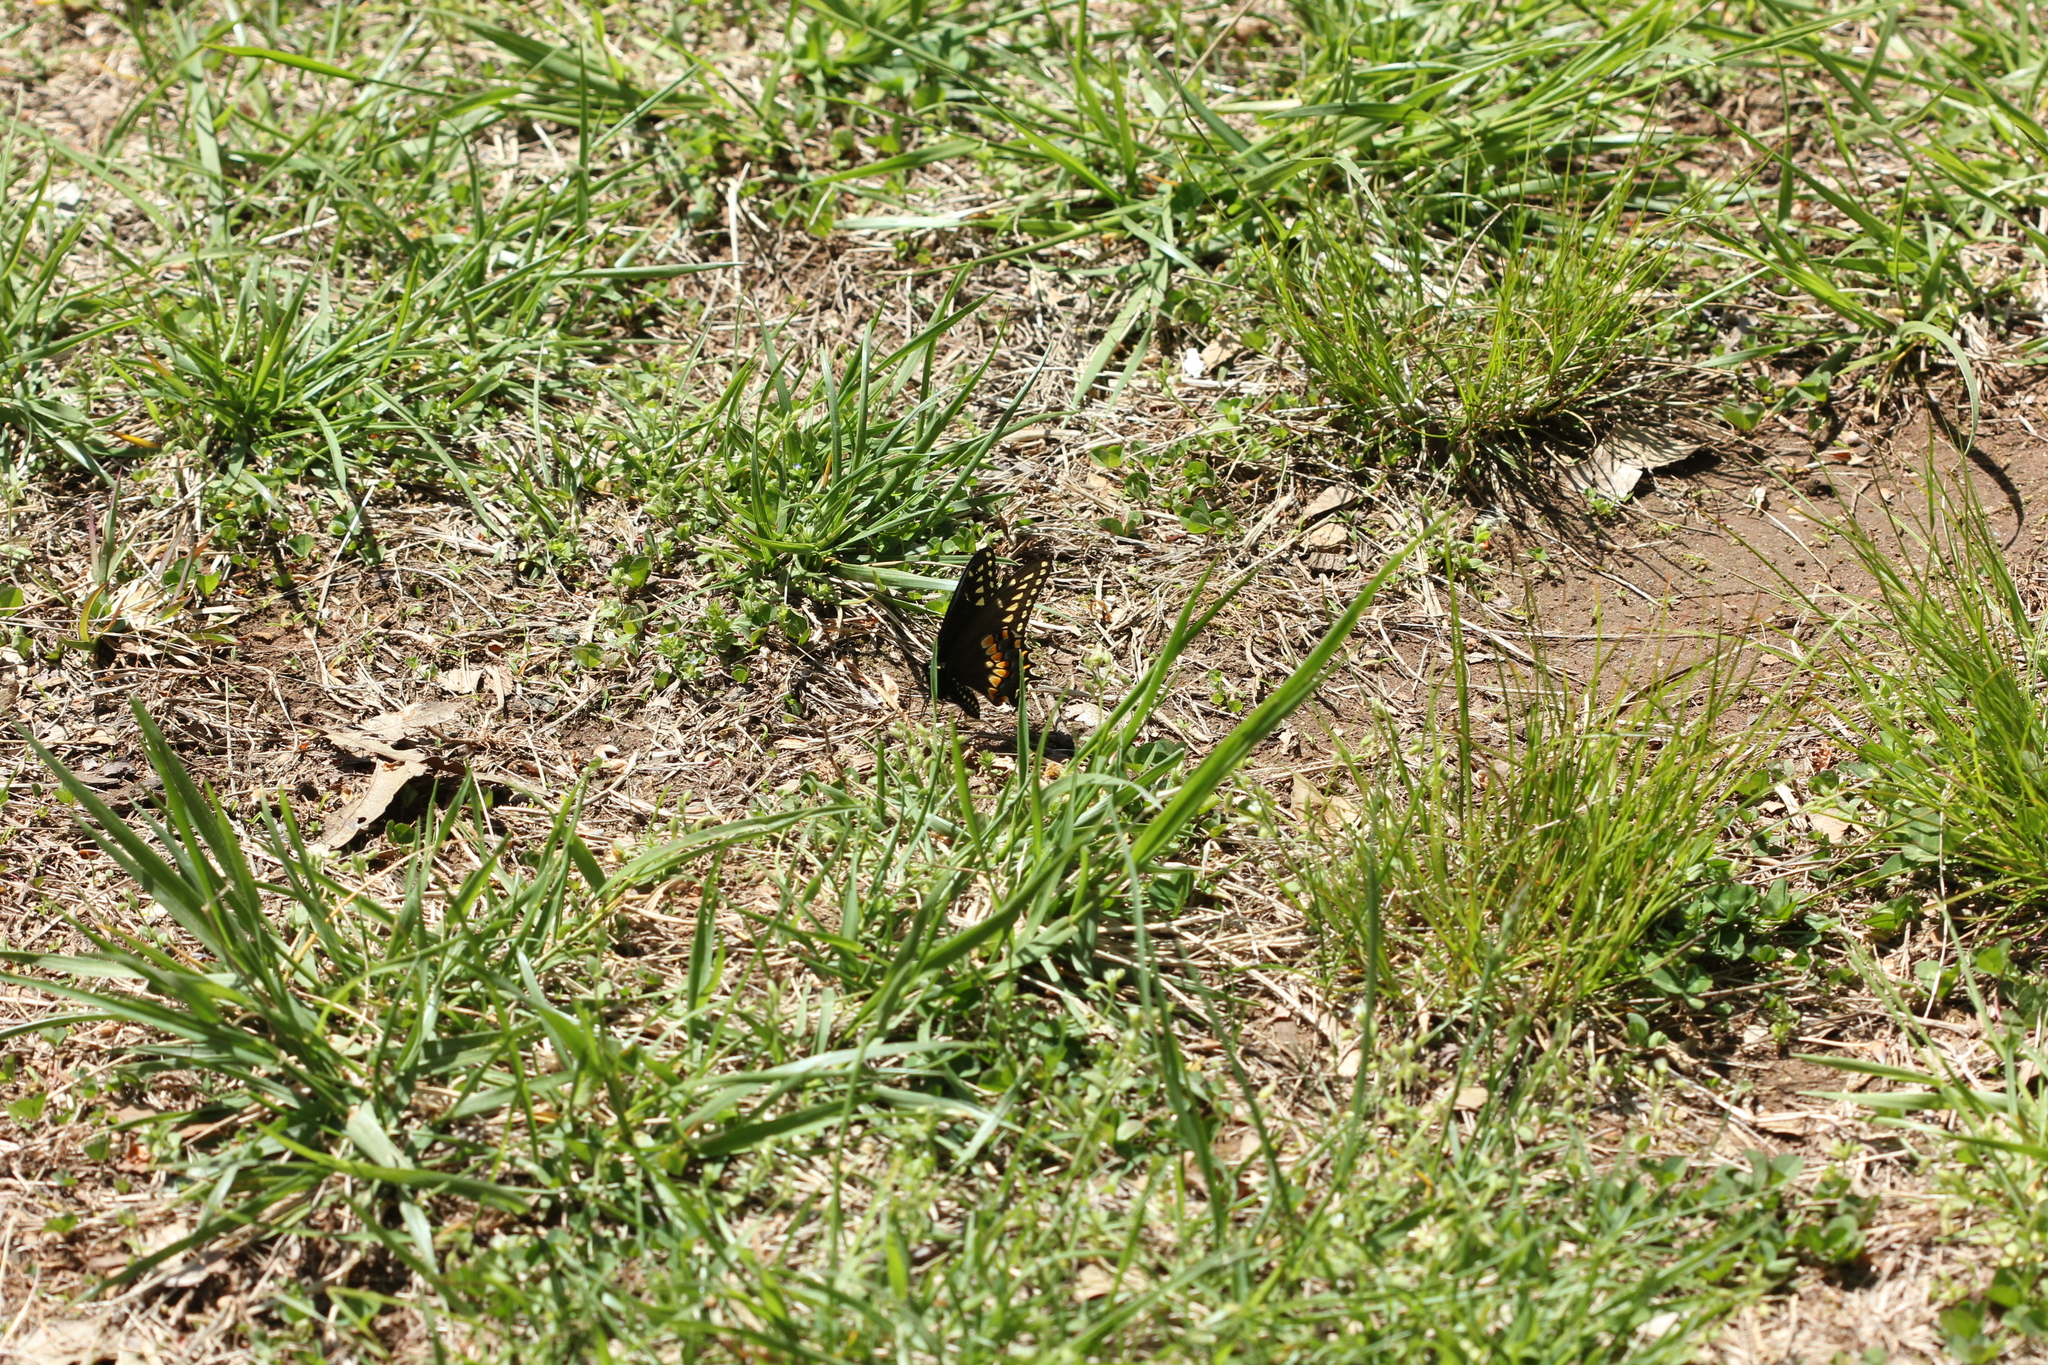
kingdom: Animalia
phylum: Arthropoda
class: Insecta
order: Lepidoptera
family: Papilionidae
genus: Papilio
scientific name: Papilio polyxenes
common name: Black swallowtail
